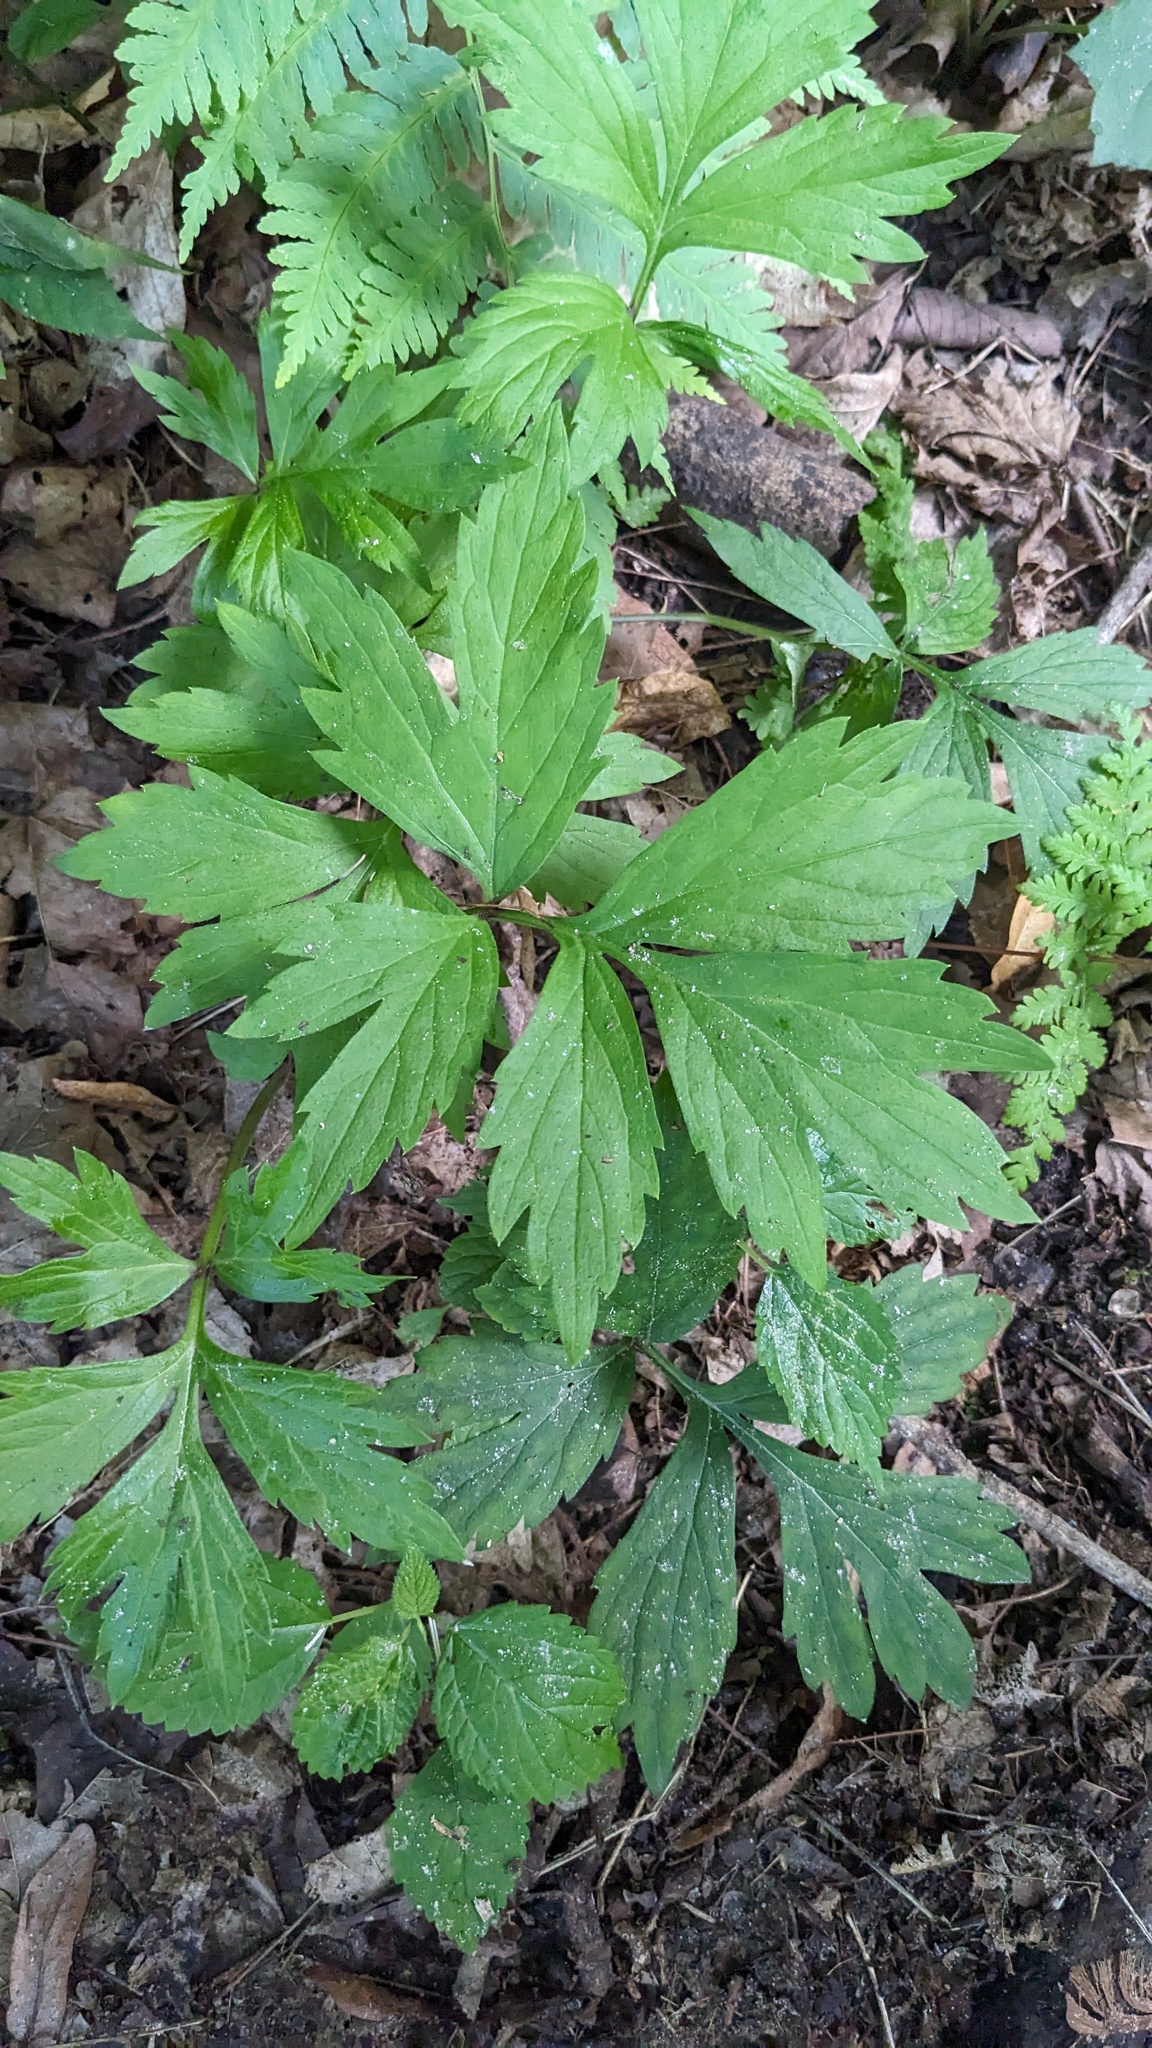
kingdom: Plantae
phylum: Tracheophyta
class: Magnoliopsida
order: Boraginales
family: Hydrophyllaceae
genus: Hydrophyllum
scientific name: Hydrophyllum virginianum
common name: Virginia waterleaf
